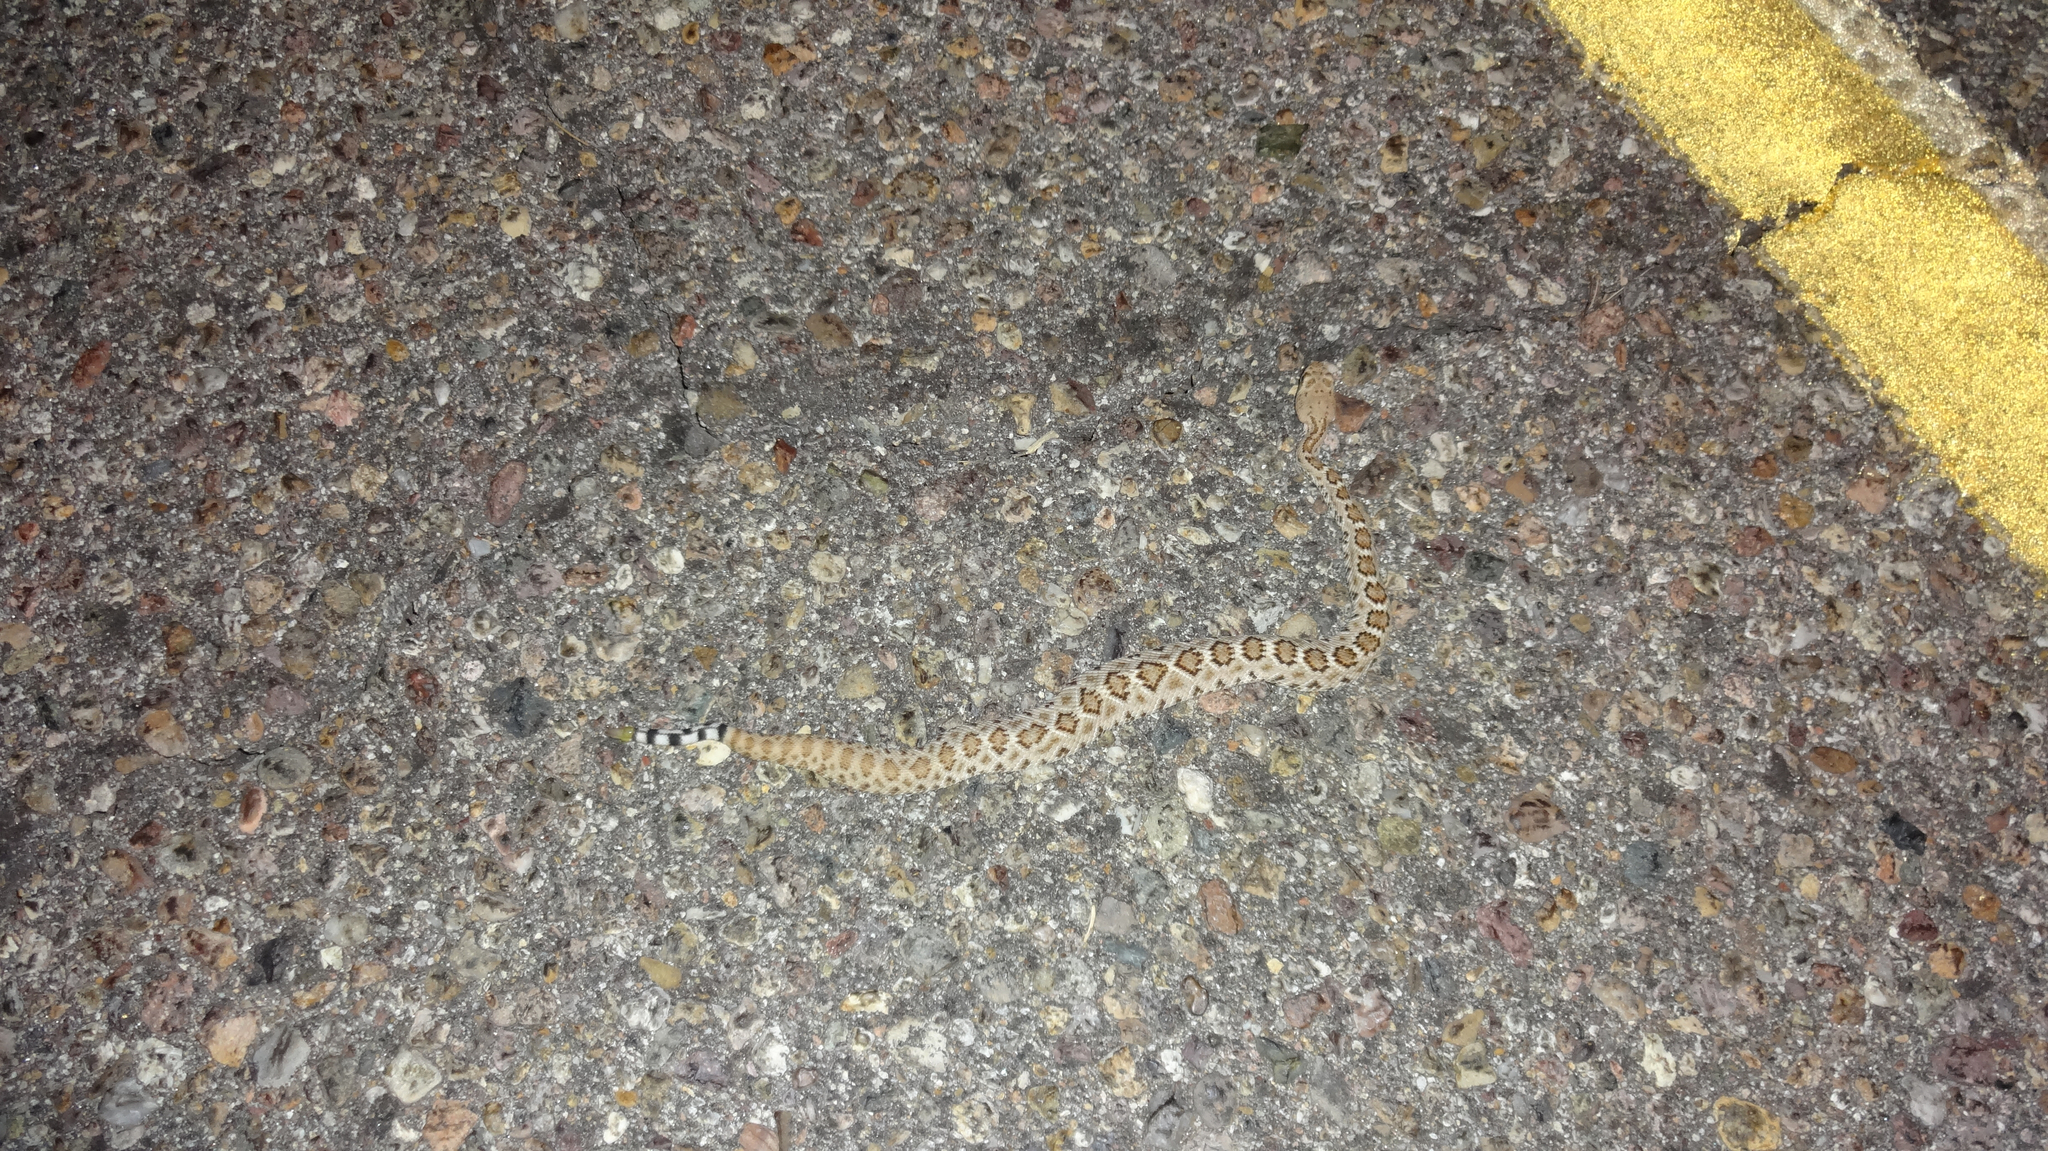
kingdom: Animalia
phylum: Chordata
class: Squamata
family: Viperidae
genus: Crotalus
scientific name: Crotalus atrox
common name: Western diamond-backed rattlesnake
